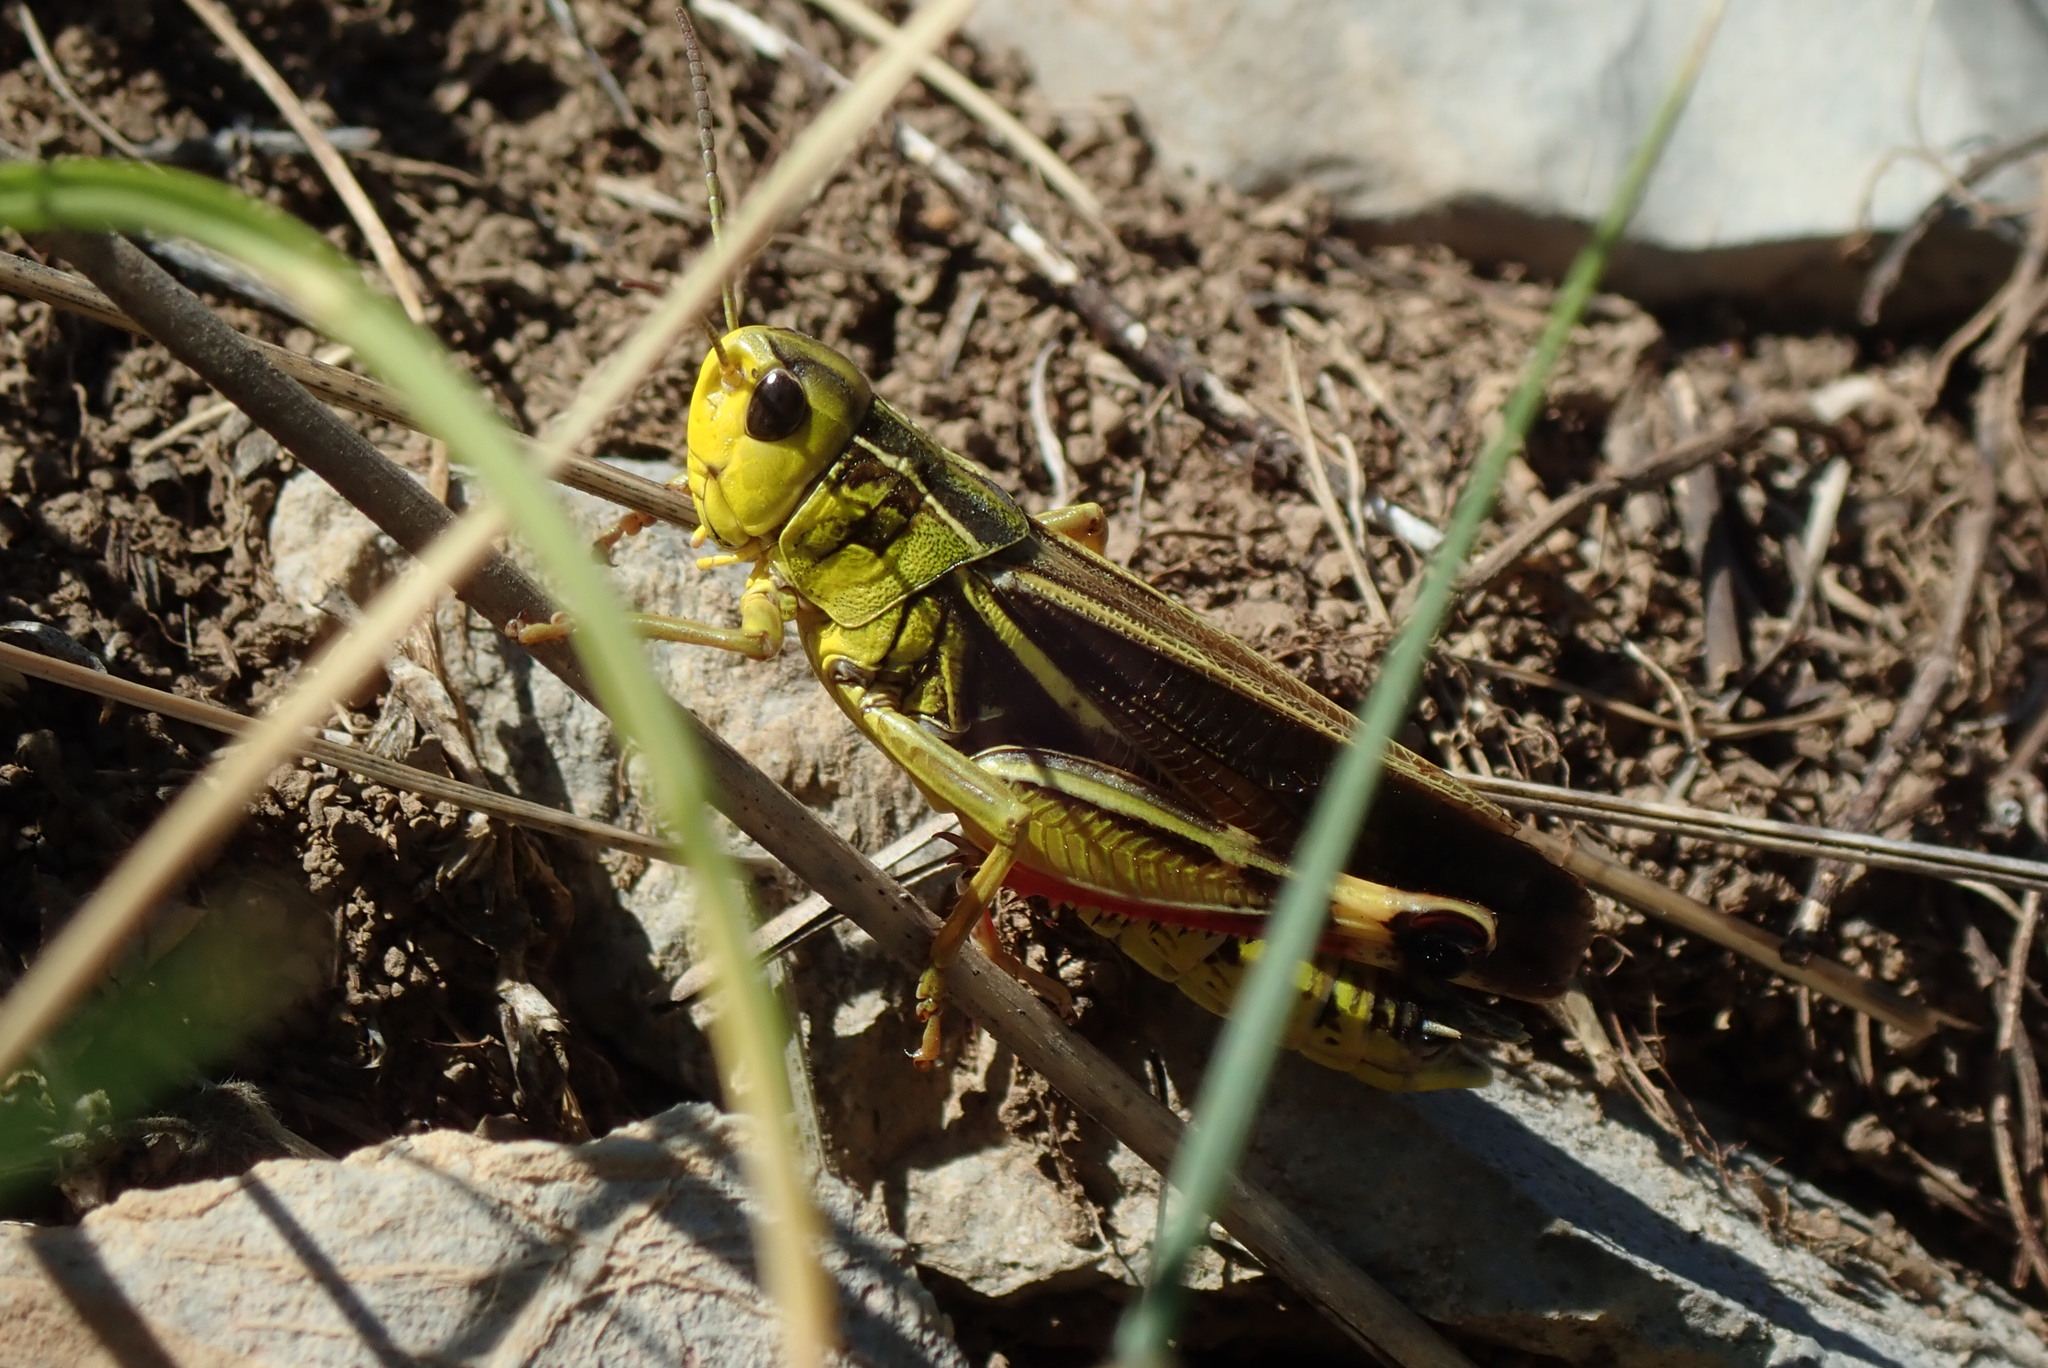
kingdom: Animalia
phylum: Arthropoda
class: Insecta
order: Orthoptera
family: Acrididae
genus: Arcyptera
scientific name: Arcyptera fusca
